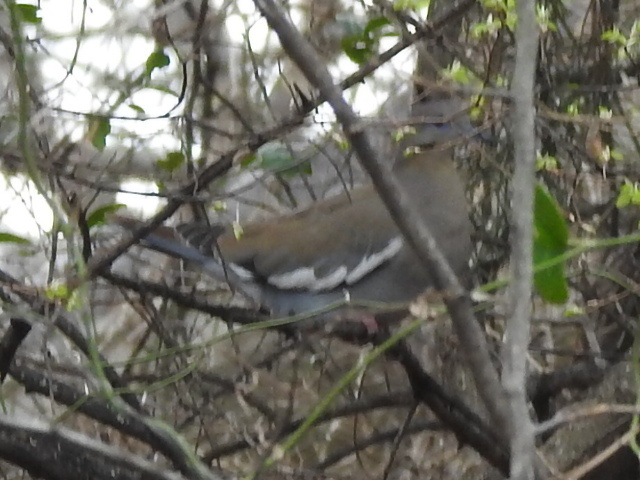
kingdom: Animalia
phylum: Chordata
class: Aves
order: Columbiformes
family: Columbidae
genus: Zenaida
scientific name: Zenaida asiatica
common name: White-winged dove
